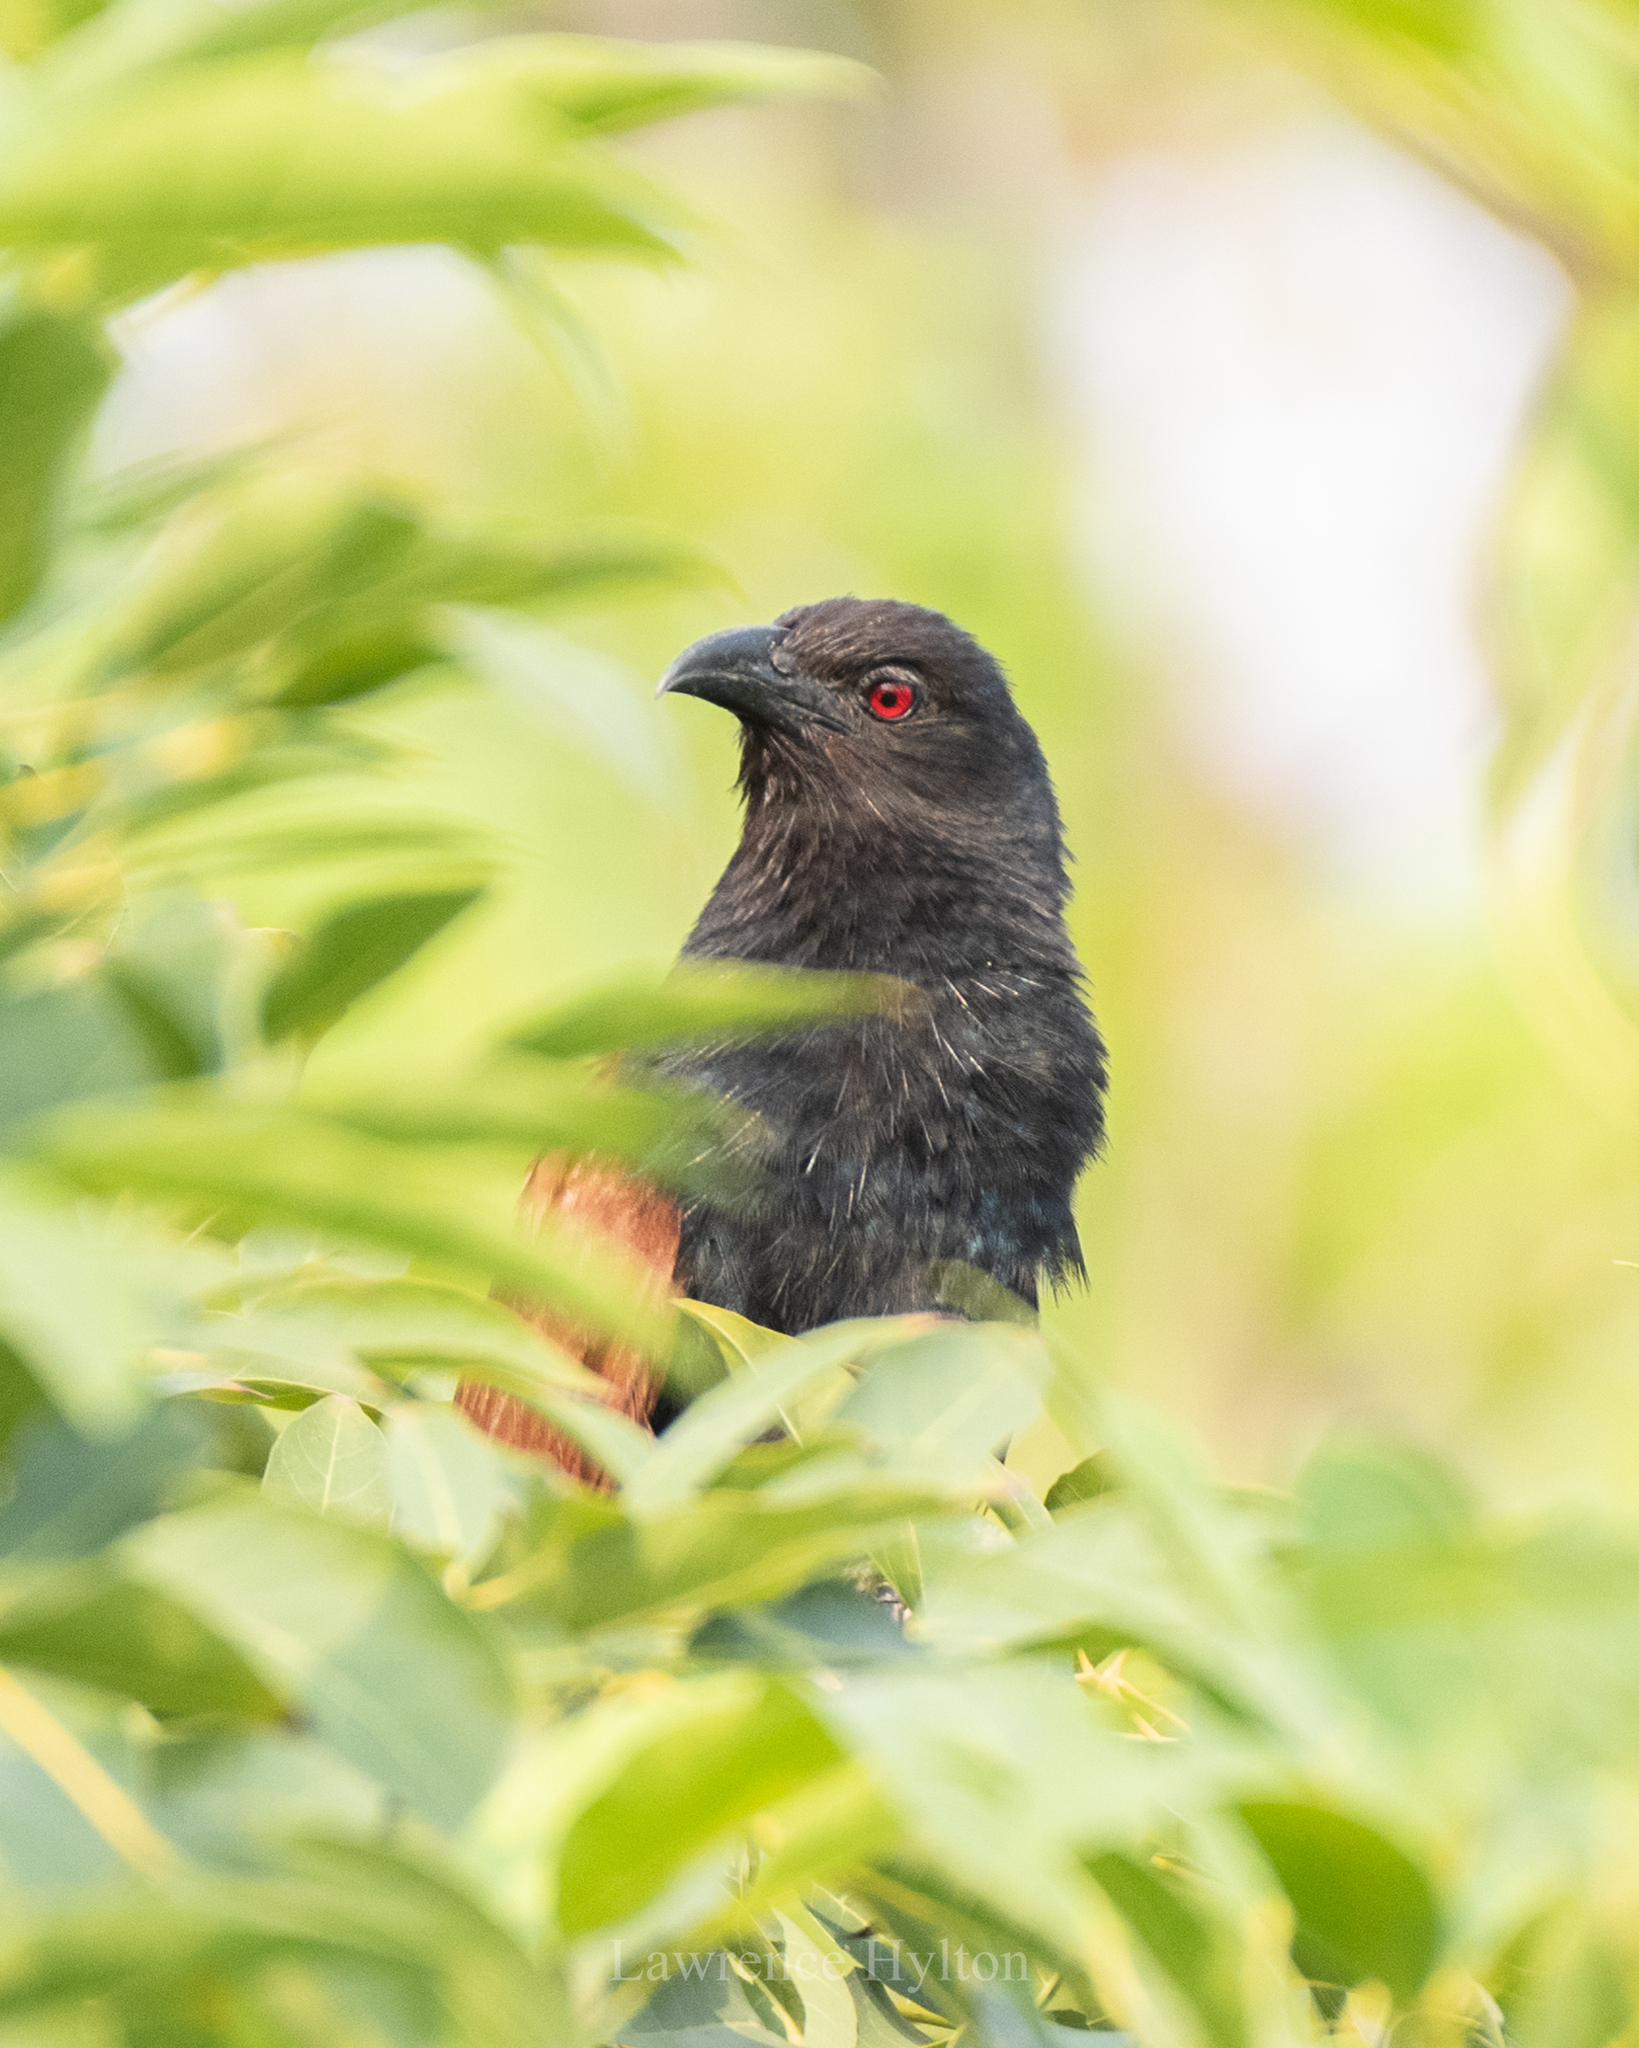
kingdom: Animalia
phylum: Chordata
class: Aves
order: Cuculiformes
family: Cuculidae
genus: Centropus
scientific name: Centropus sinensis
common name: Greater coucal
